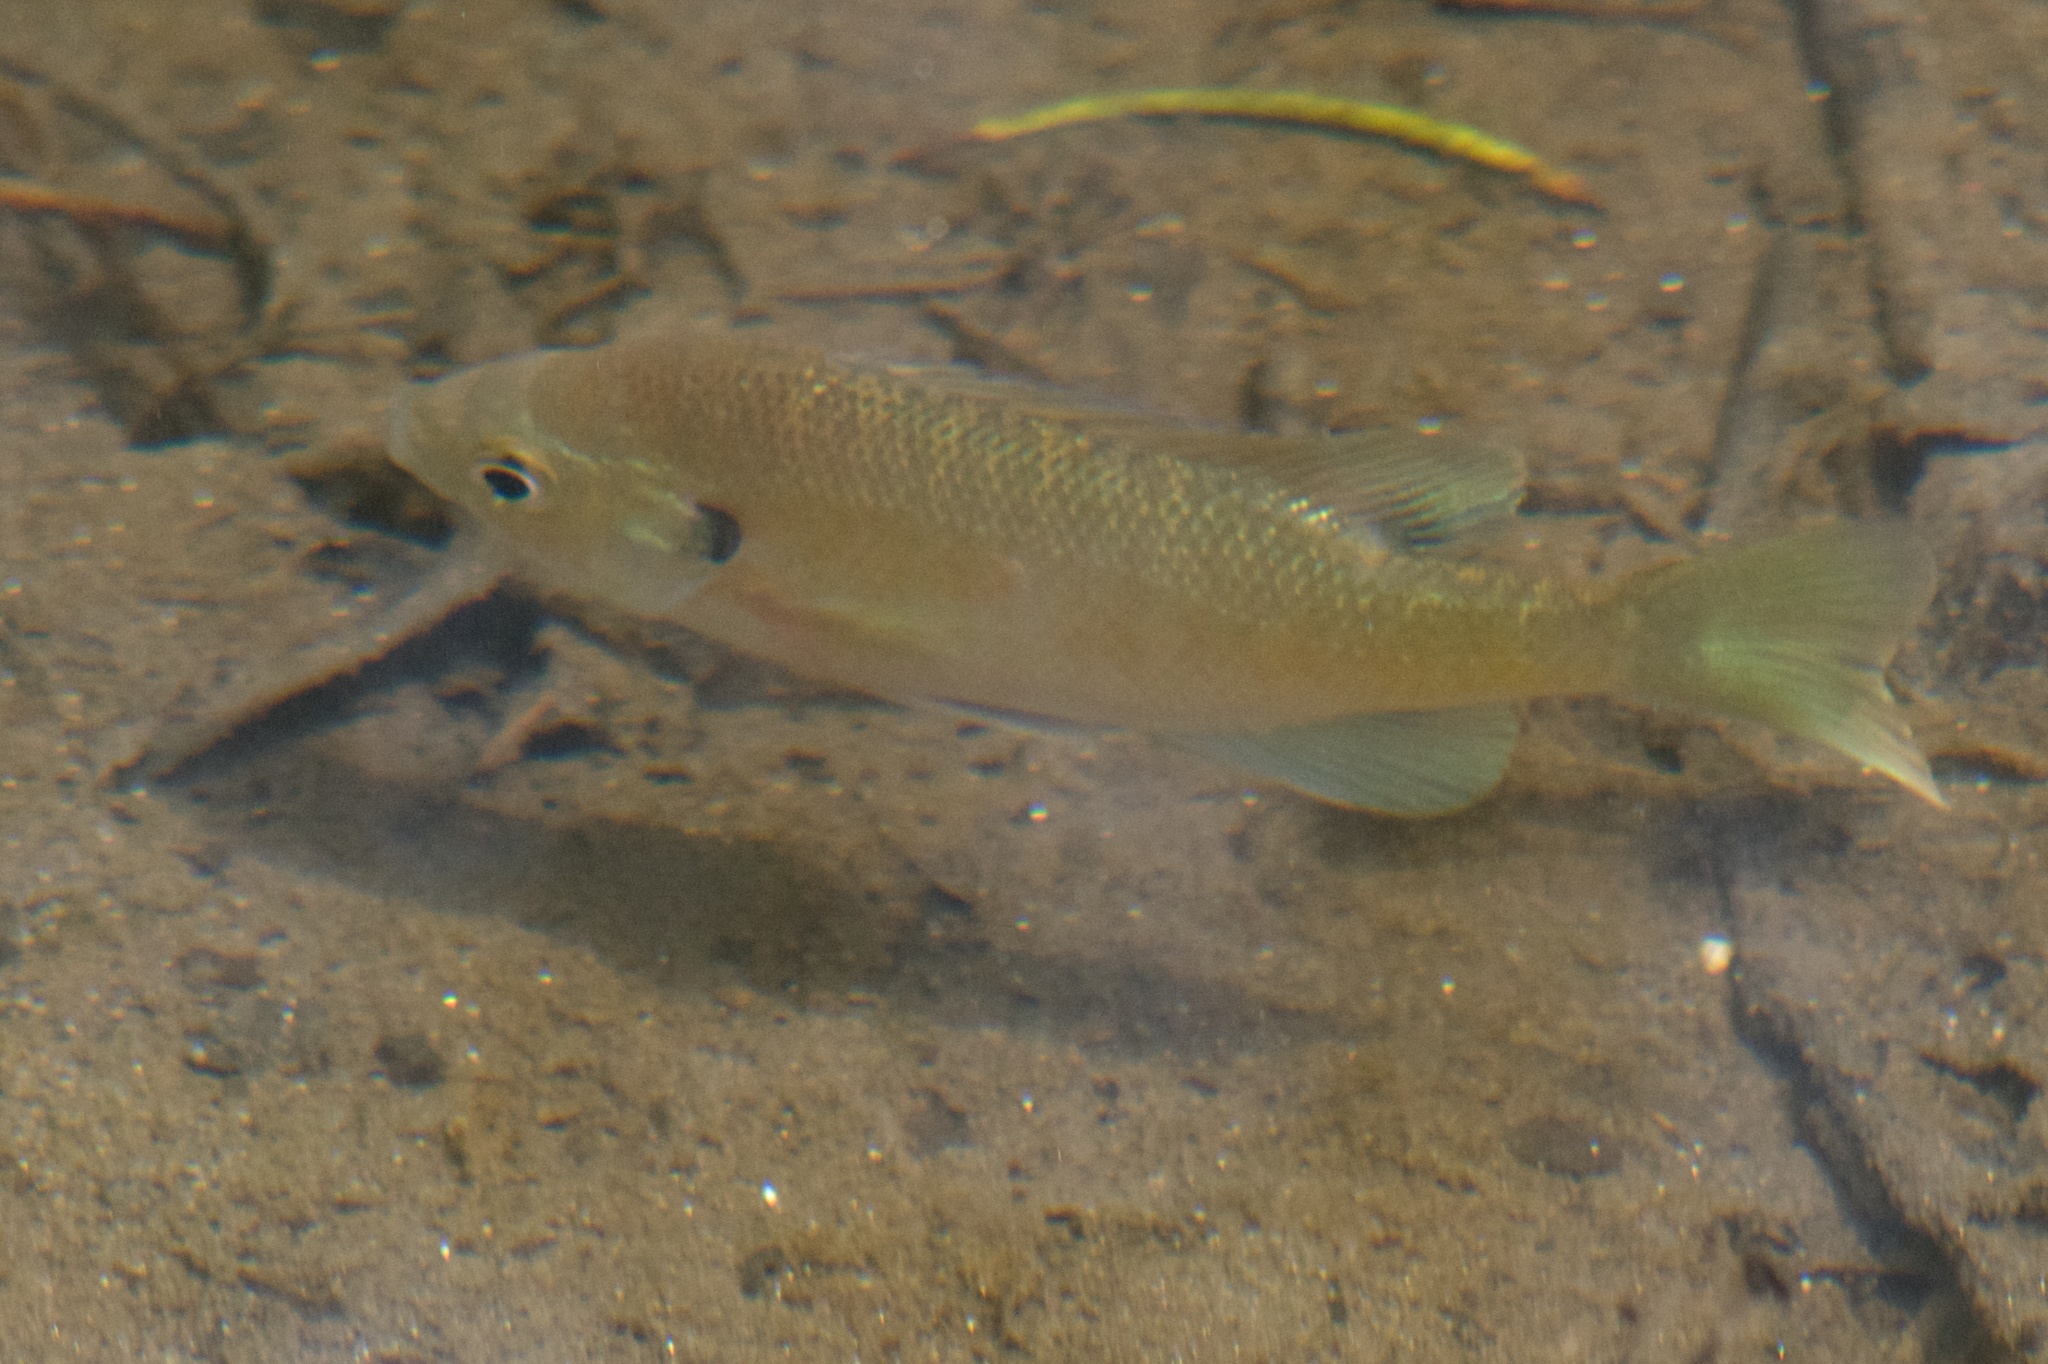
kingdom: Animalia
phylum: Chordata
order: Perciformes
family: Centrarchidae
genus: Lepomis
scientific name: Lepomis macrochirus
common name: Bluegill
